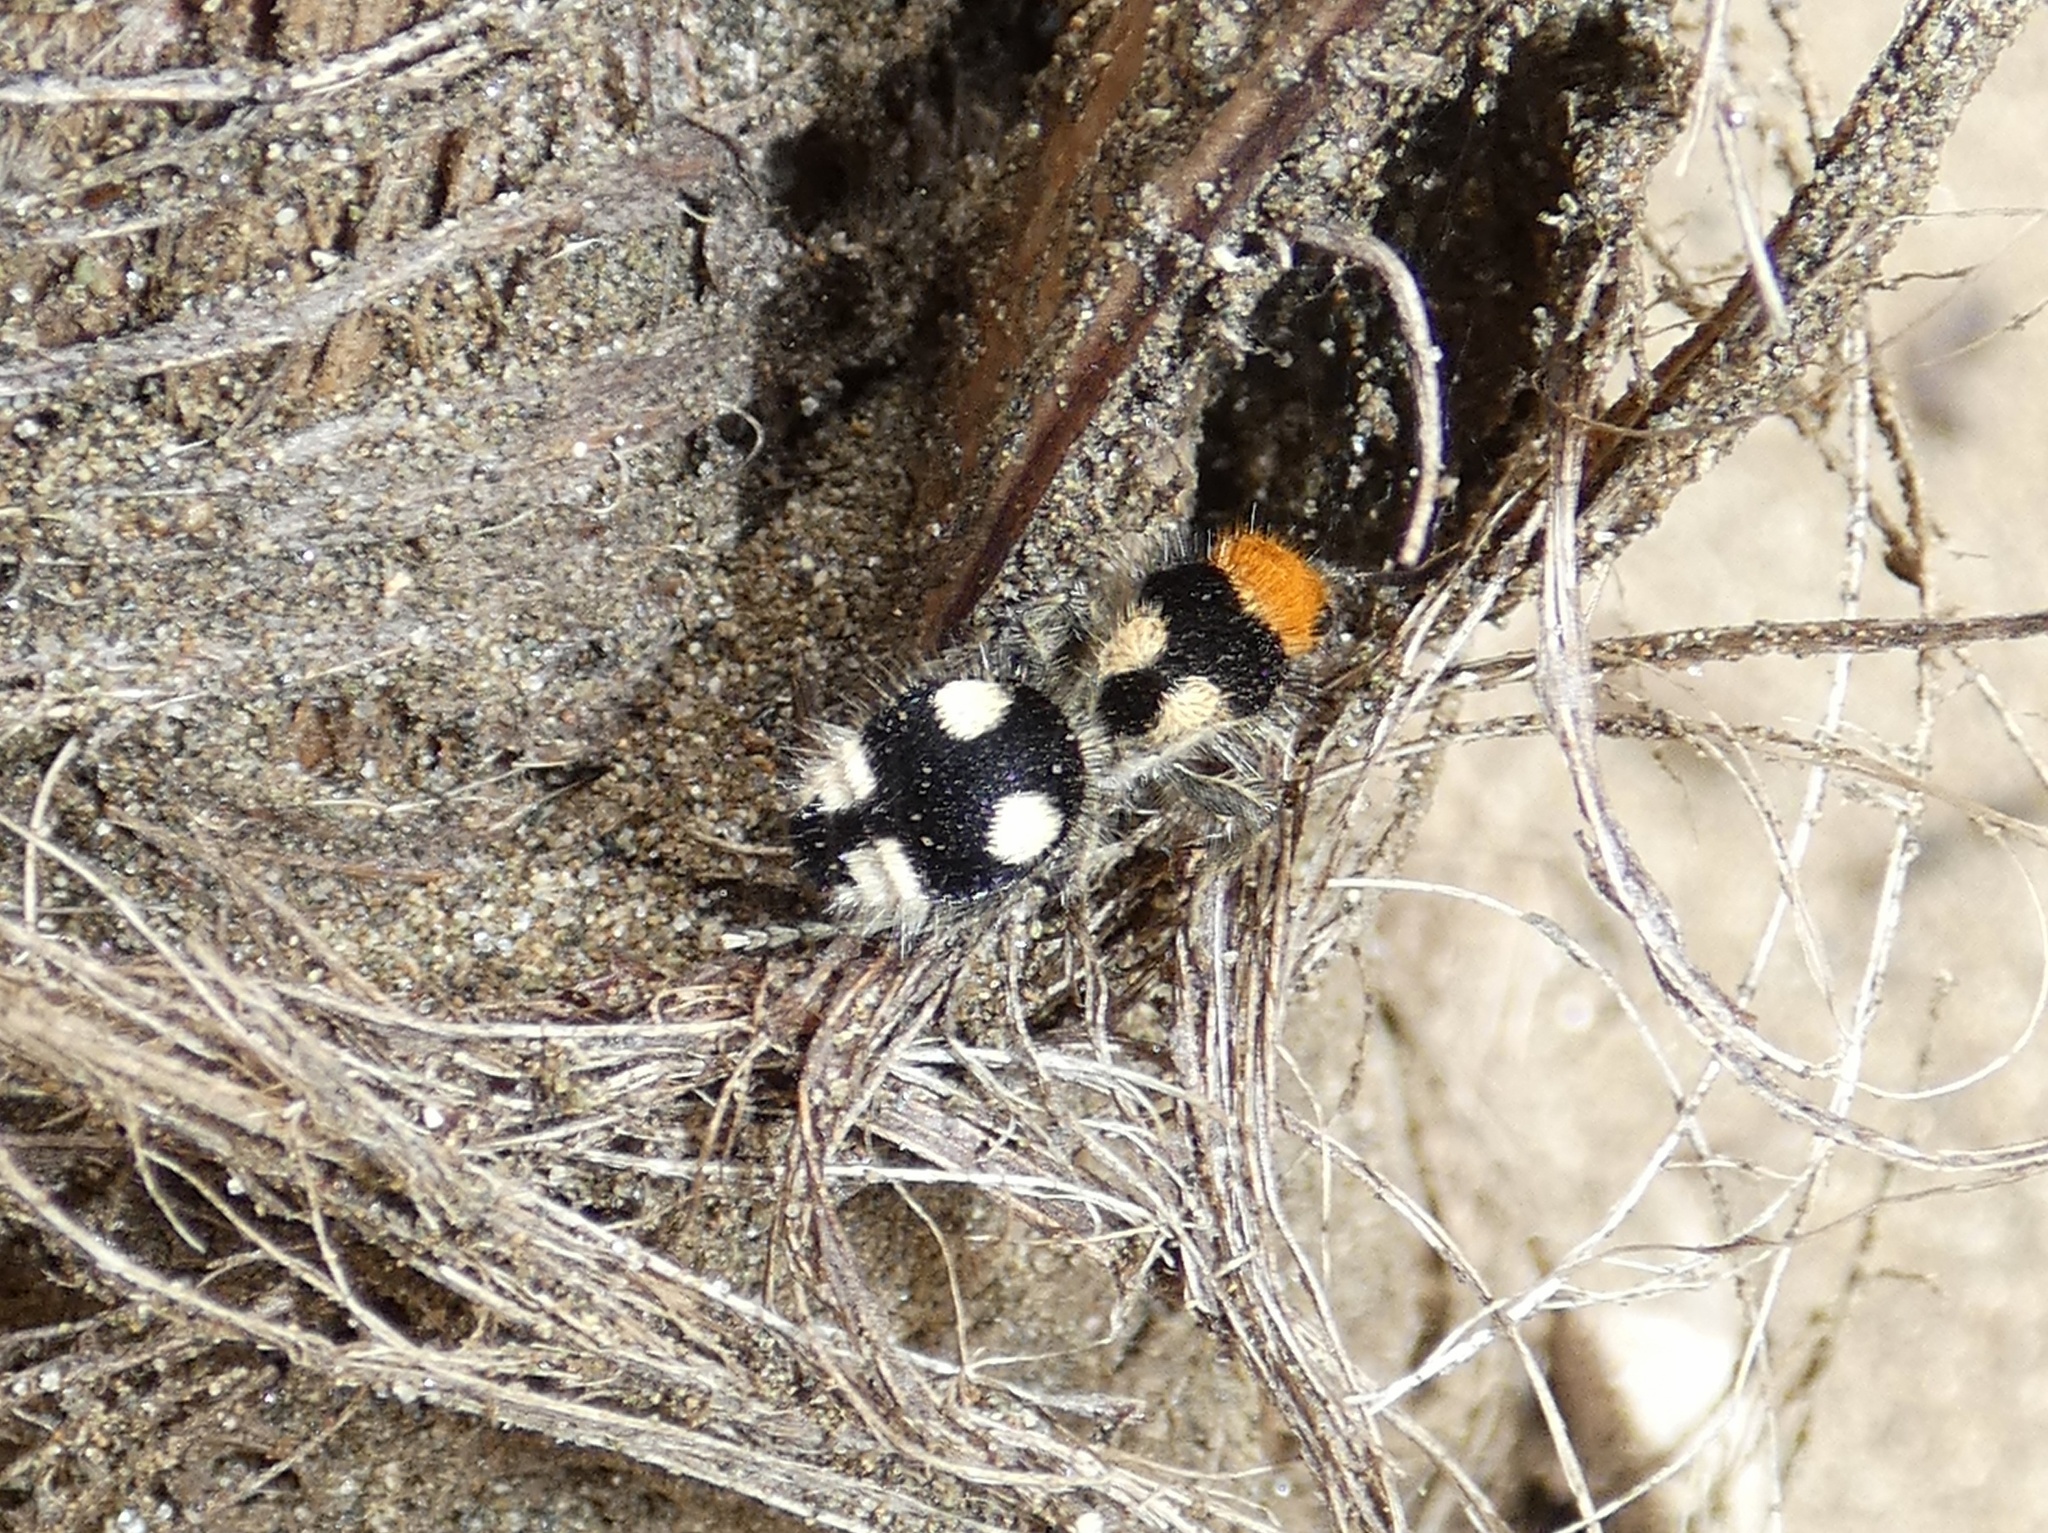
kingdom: Animalia
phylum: Arthropoda
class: Insecta
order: Hymenoptera
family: Mutillidae
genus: Dasymutilla
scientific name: Dasymutilla araneoides
